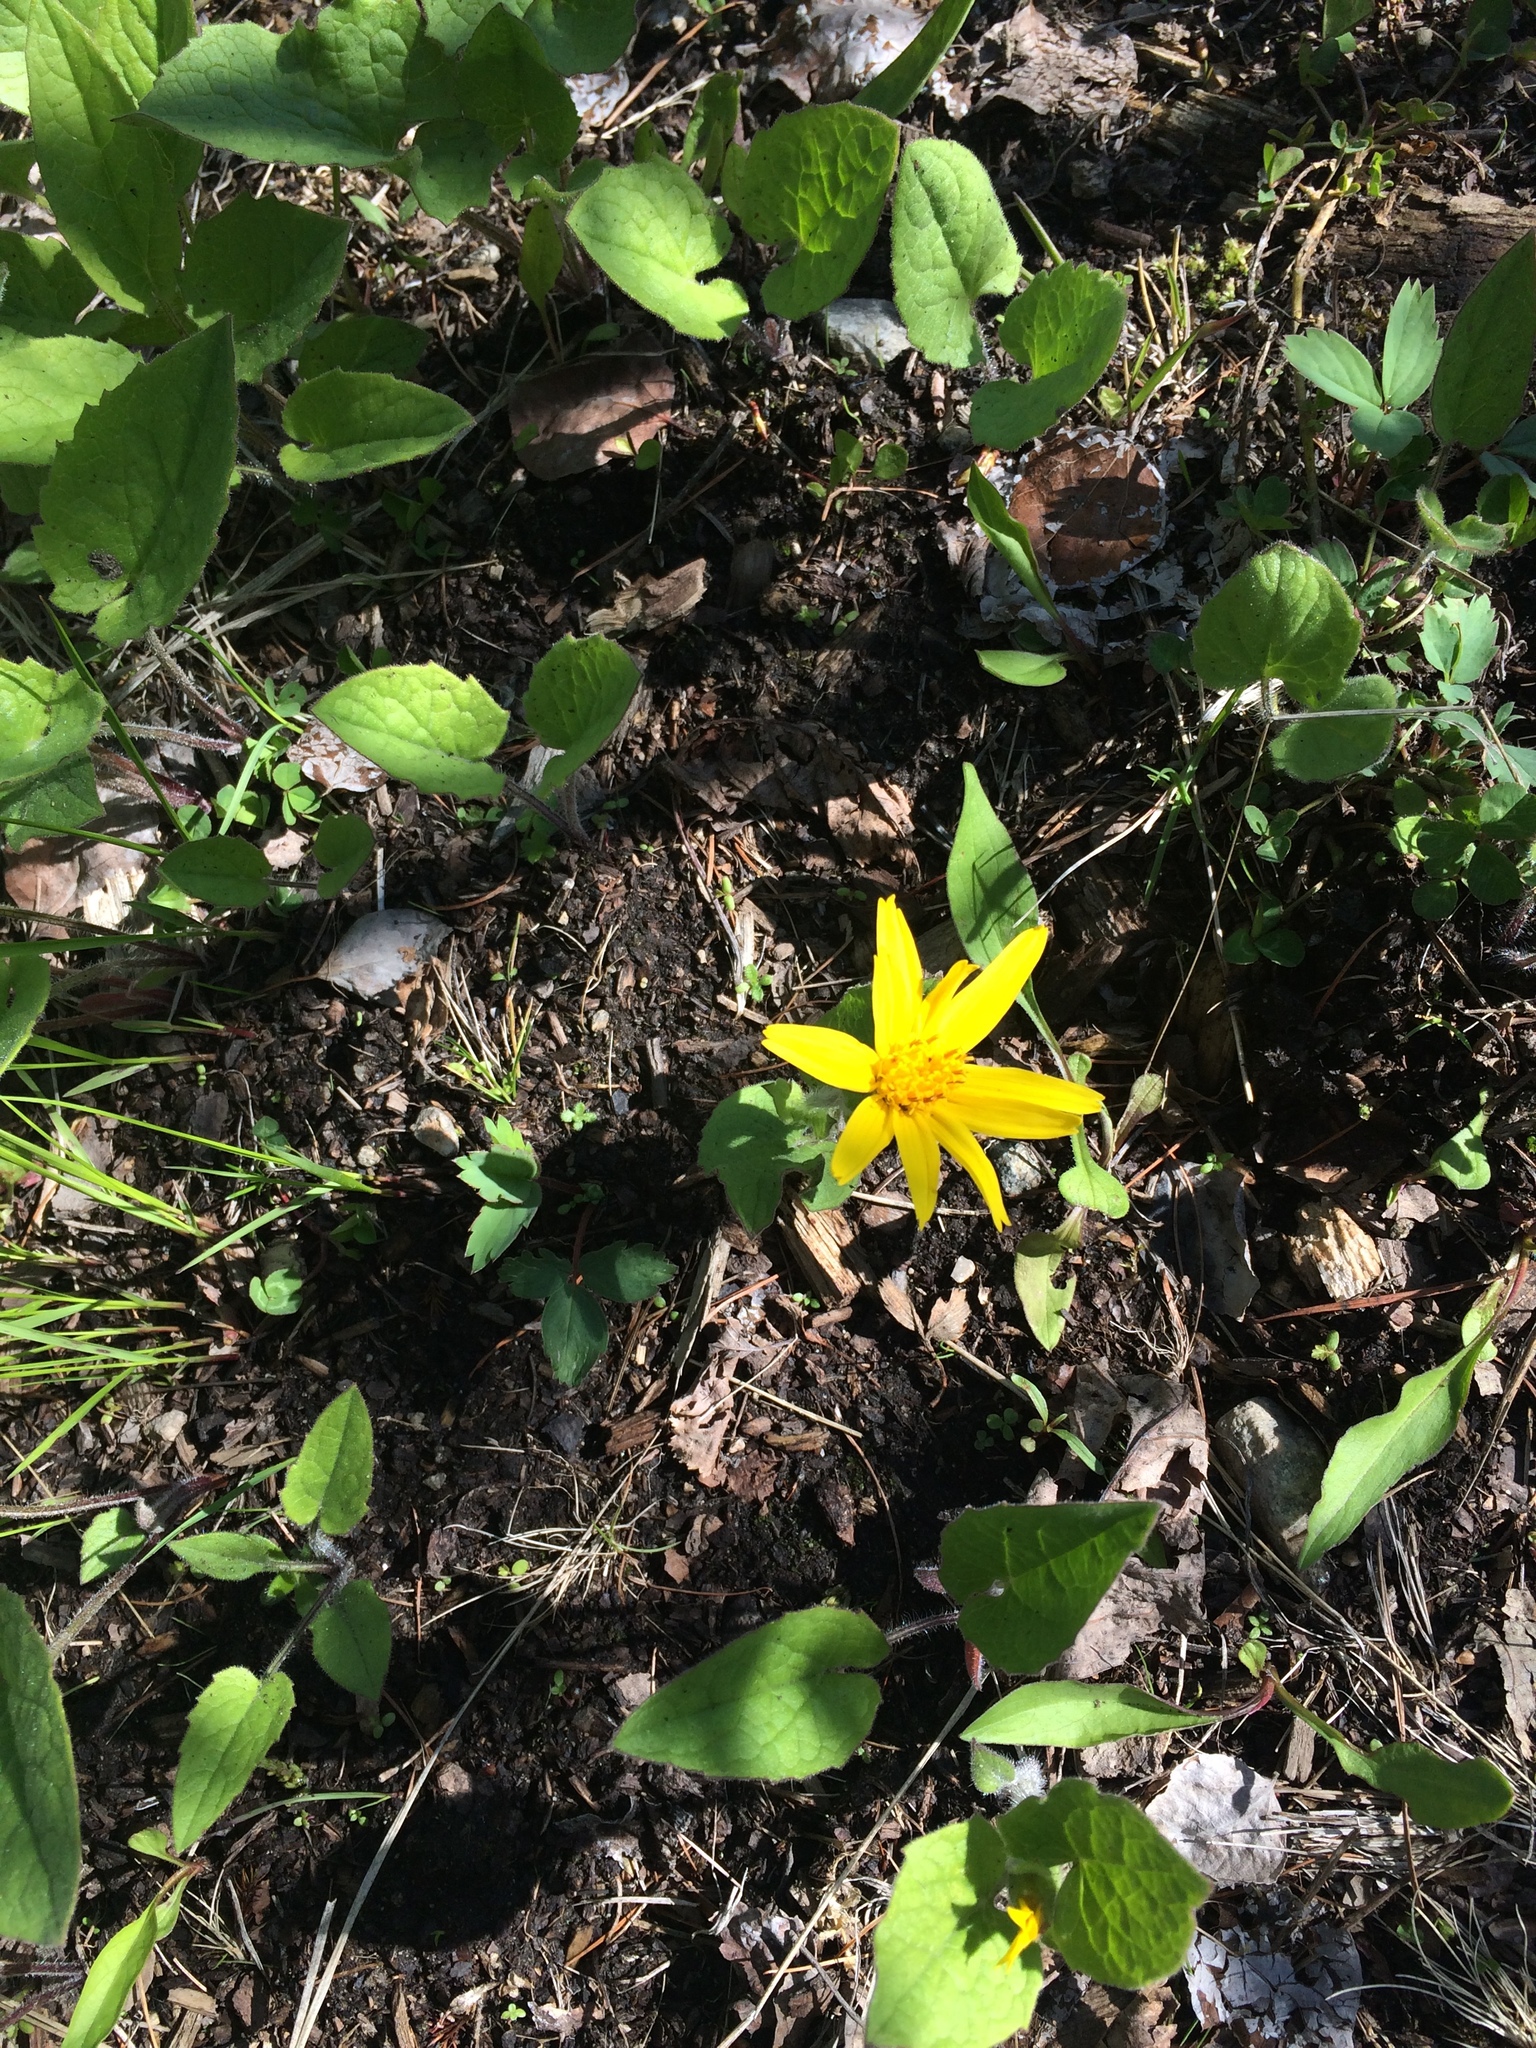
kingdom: Plantae
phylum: Tracheophyta
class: Magnoliopsida
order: Asterales
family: Asteraceae
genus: Arnica
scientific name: Arnica cordifolia
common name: Heart-leaf arnica
